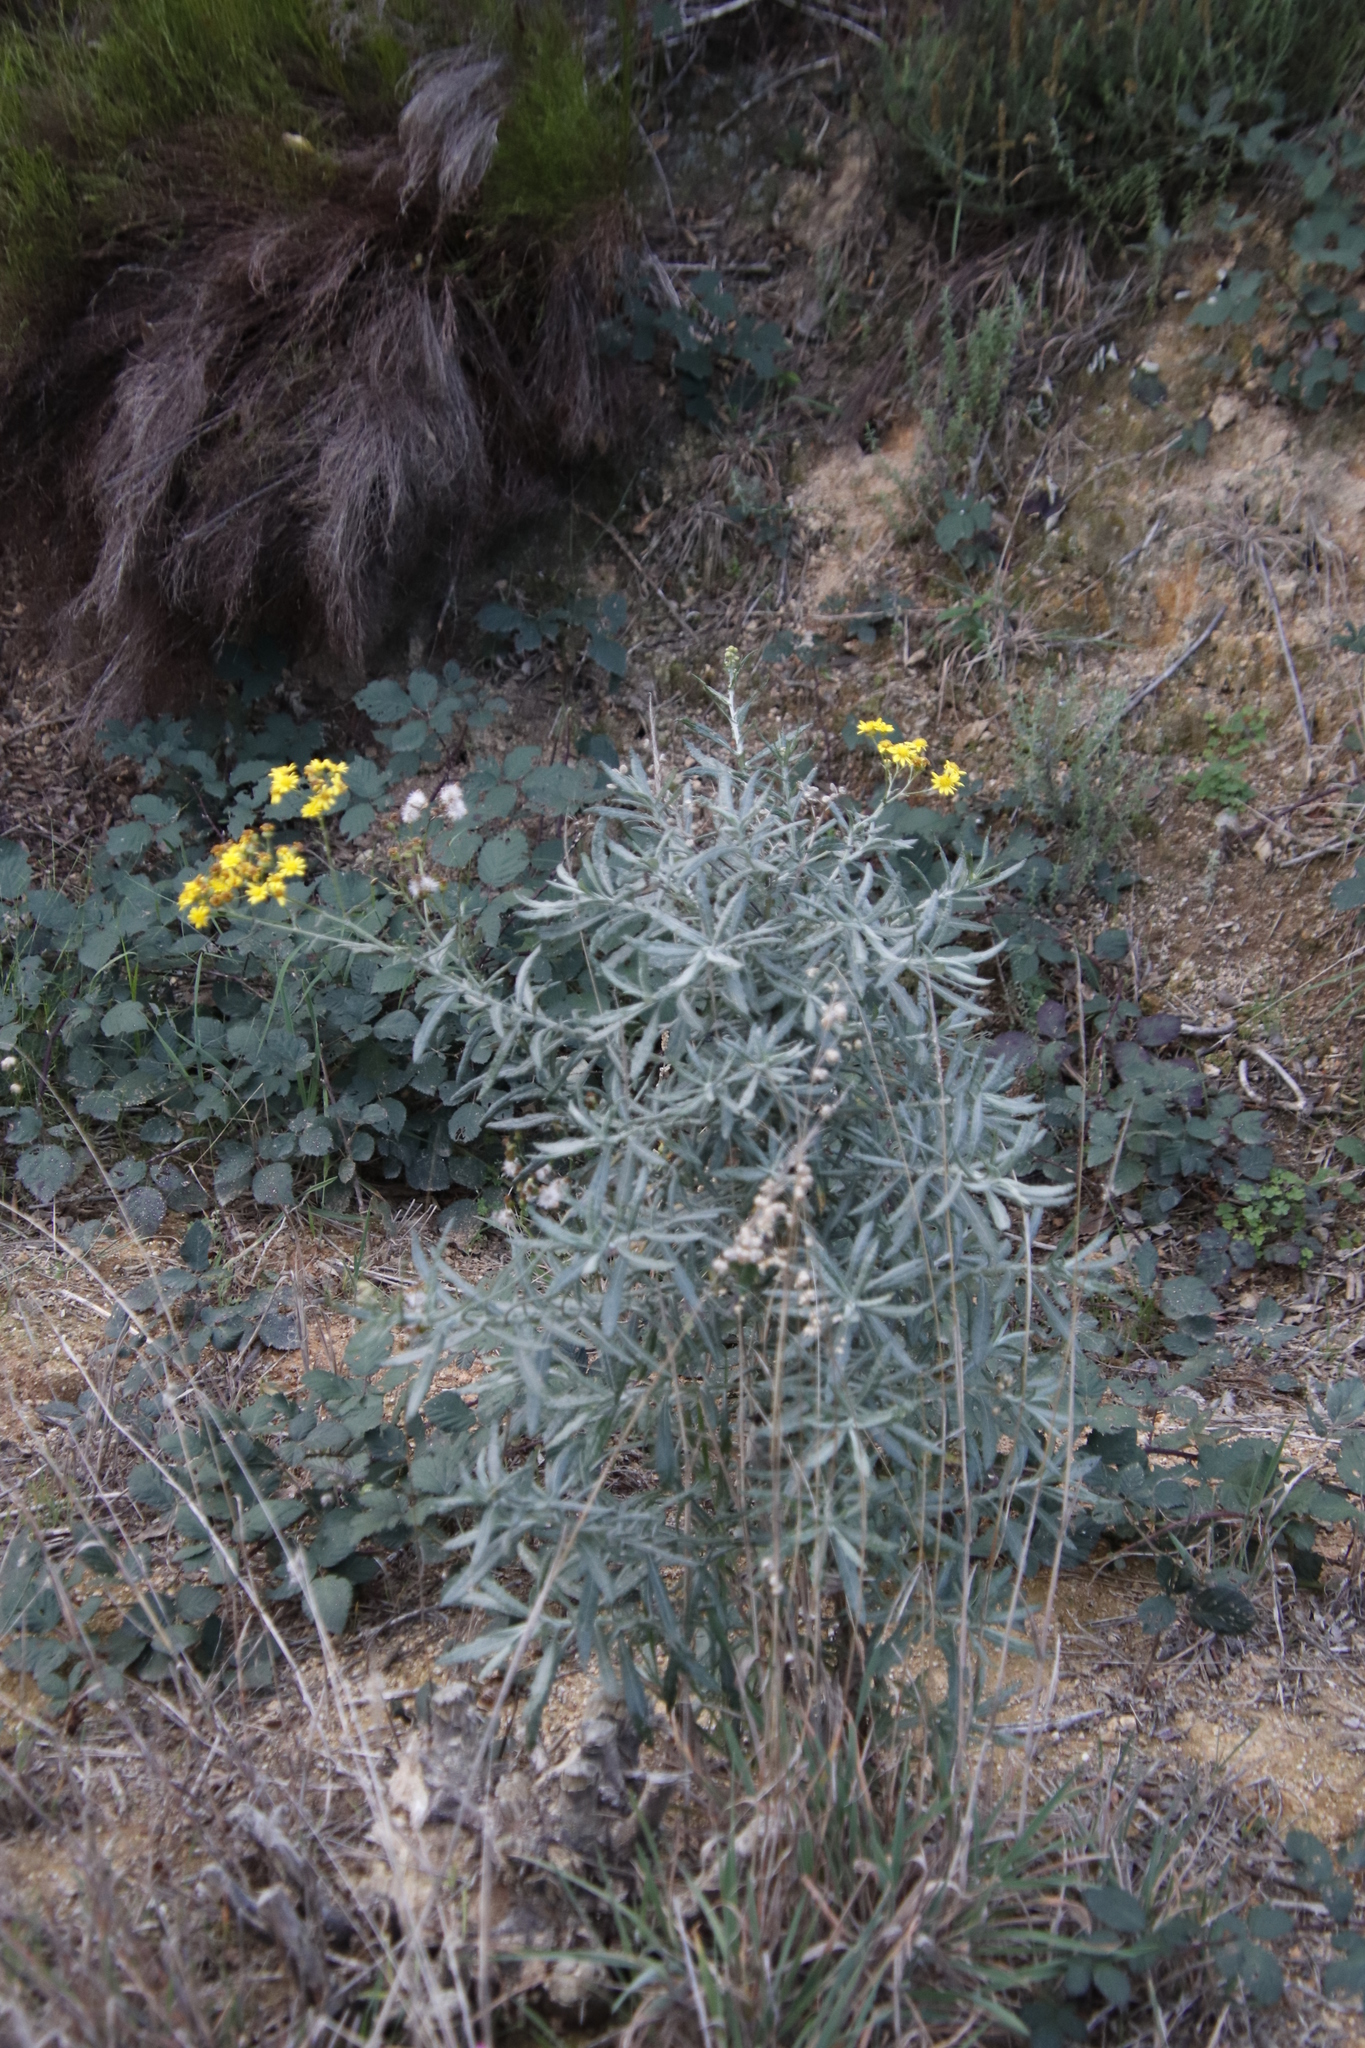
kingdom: Plantae
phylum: Tracheophyta
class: Magnoliopsida
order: Asterales
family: Asteraceae
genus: Senecio
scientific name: Senecio pterophorus
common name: Shoddy ragwort
